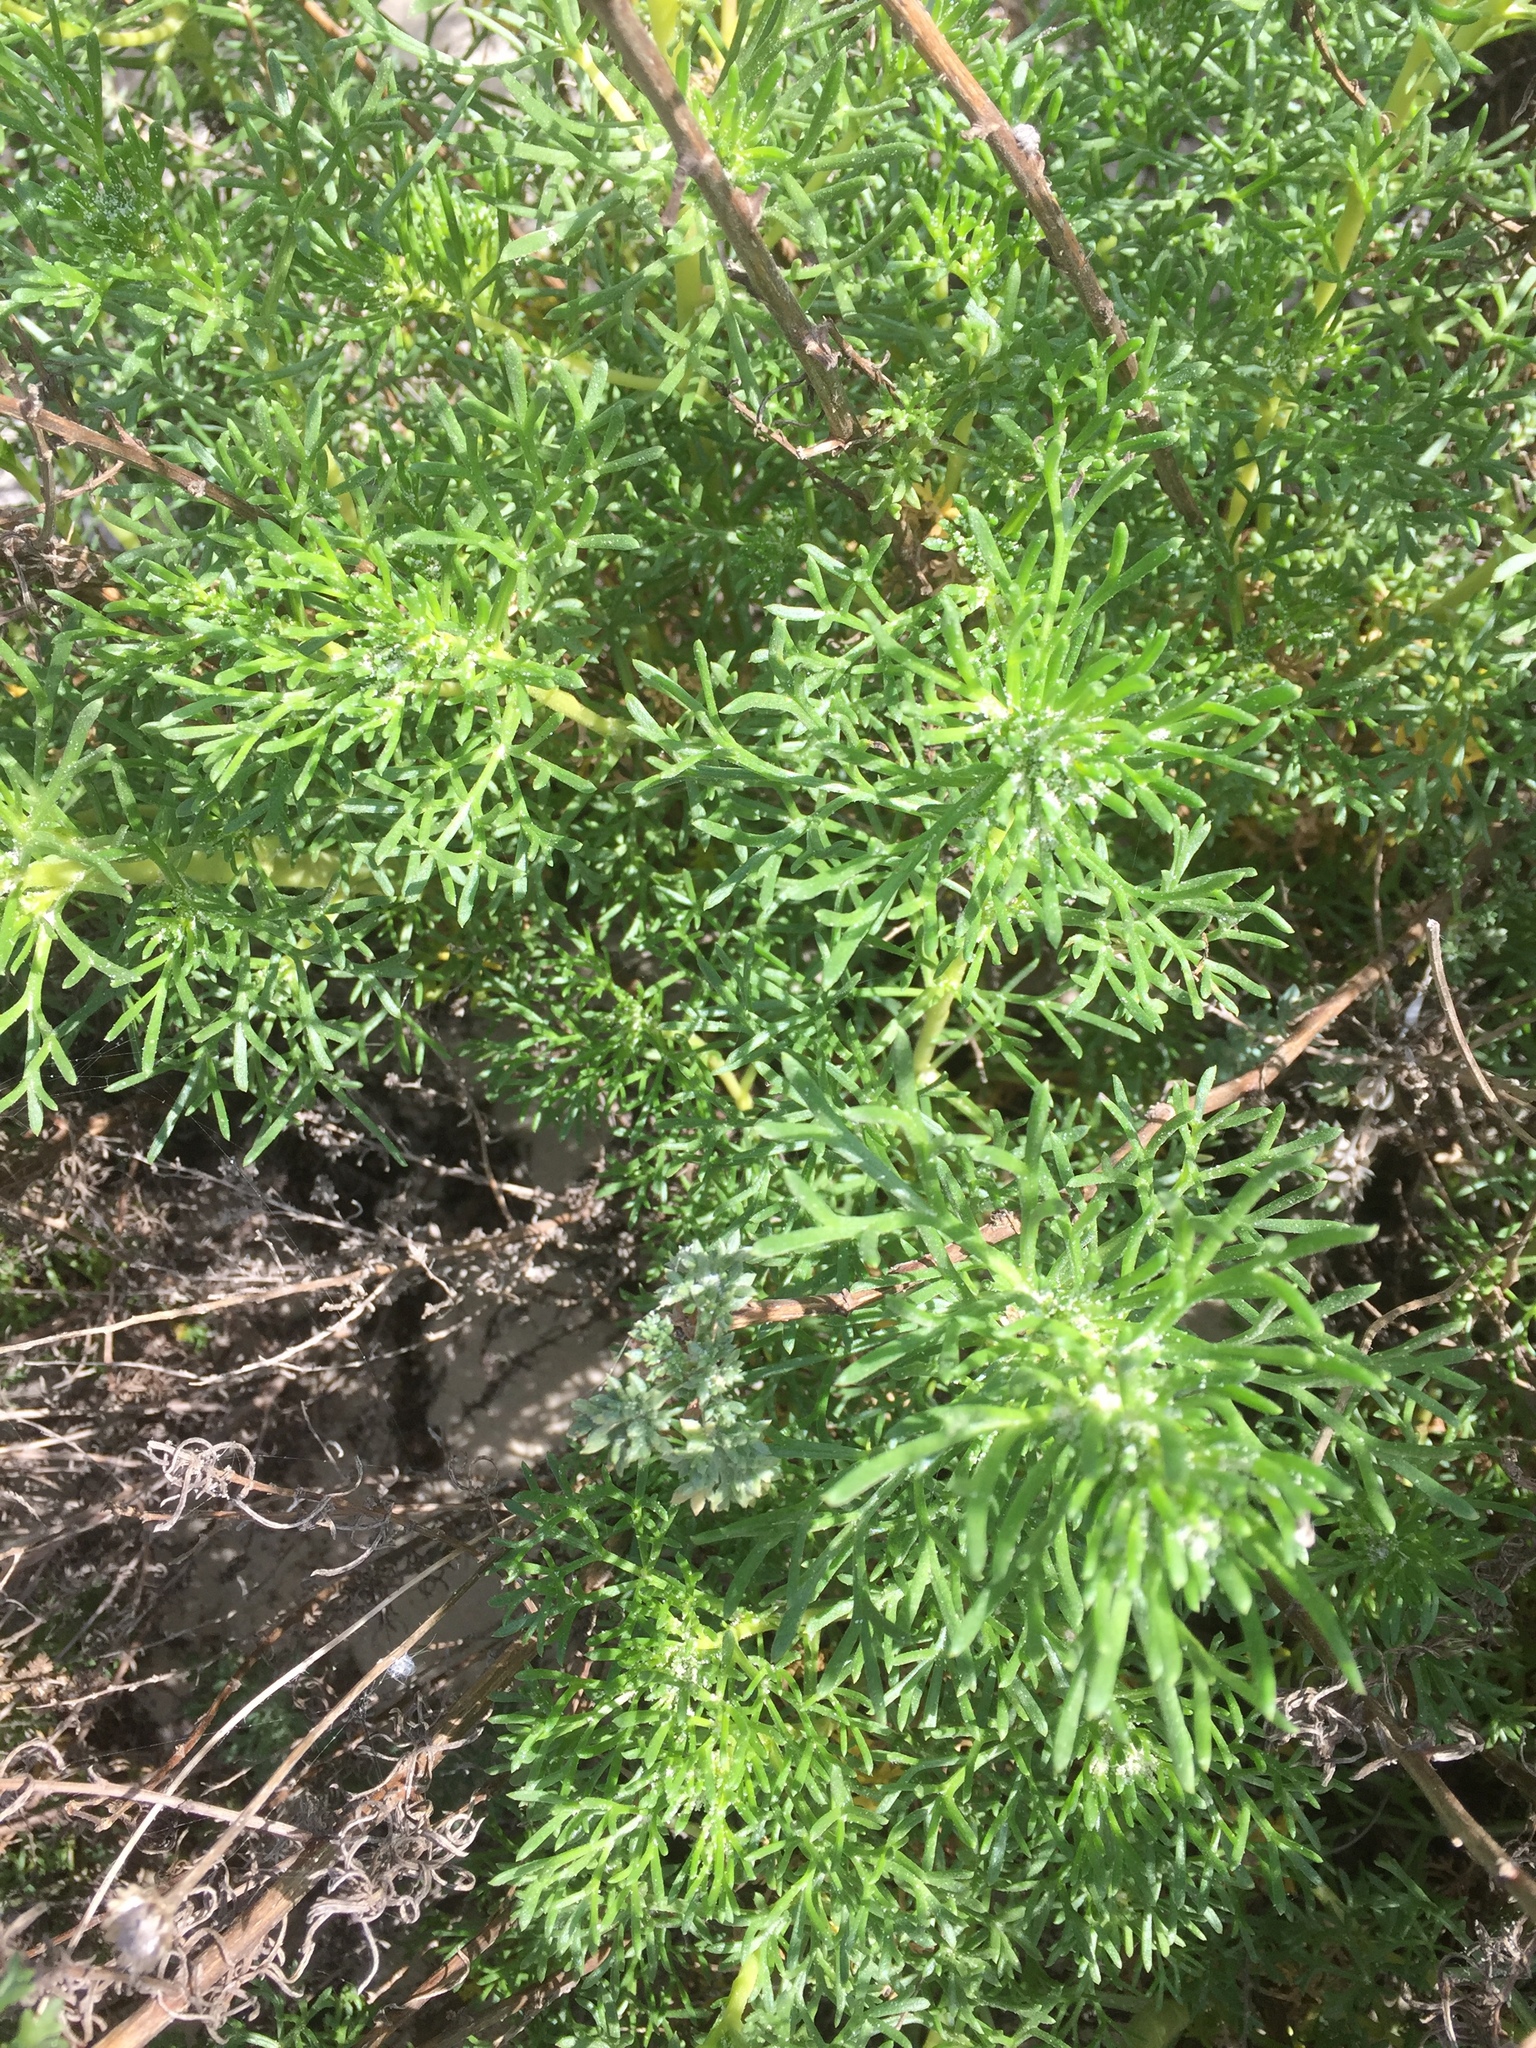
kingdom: Plantae
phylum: Tracheophyta
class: Magnoliopsida
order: Asterales
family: Asteraceae
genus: Artemisia
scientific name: Artemisia campestris
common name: Field wormwood
